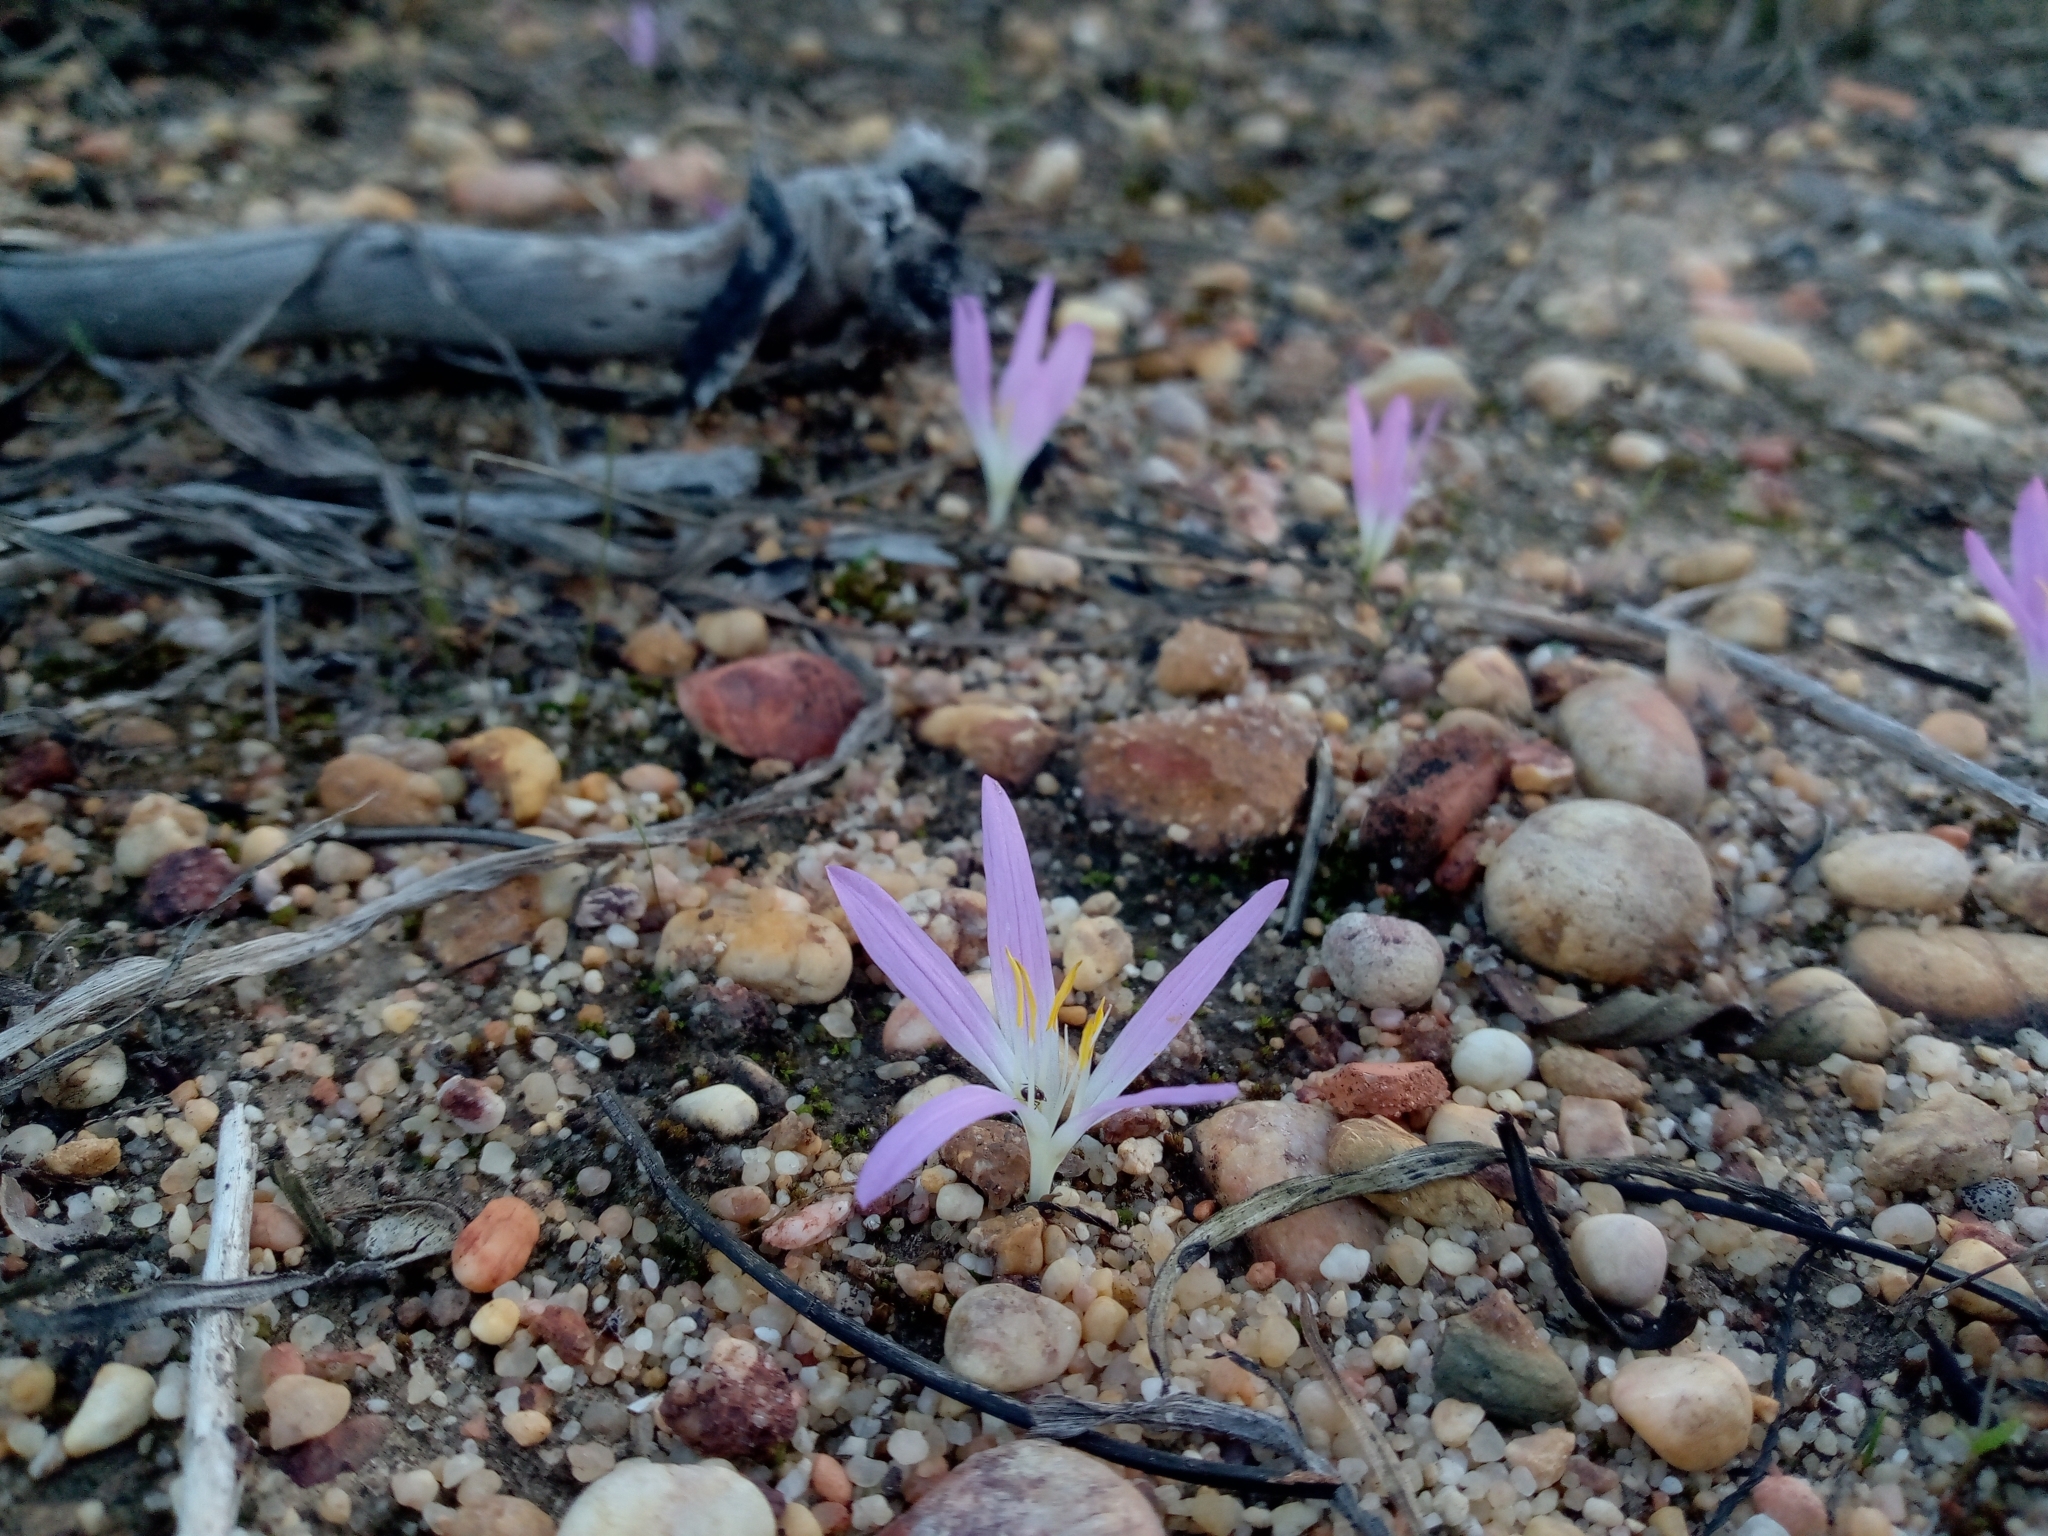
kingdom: Plantae
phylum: Tracheophyta
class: Liliopsida
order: Liliales
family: Colchicaceae
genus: Colchicum
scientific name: Colchicum filifolium
